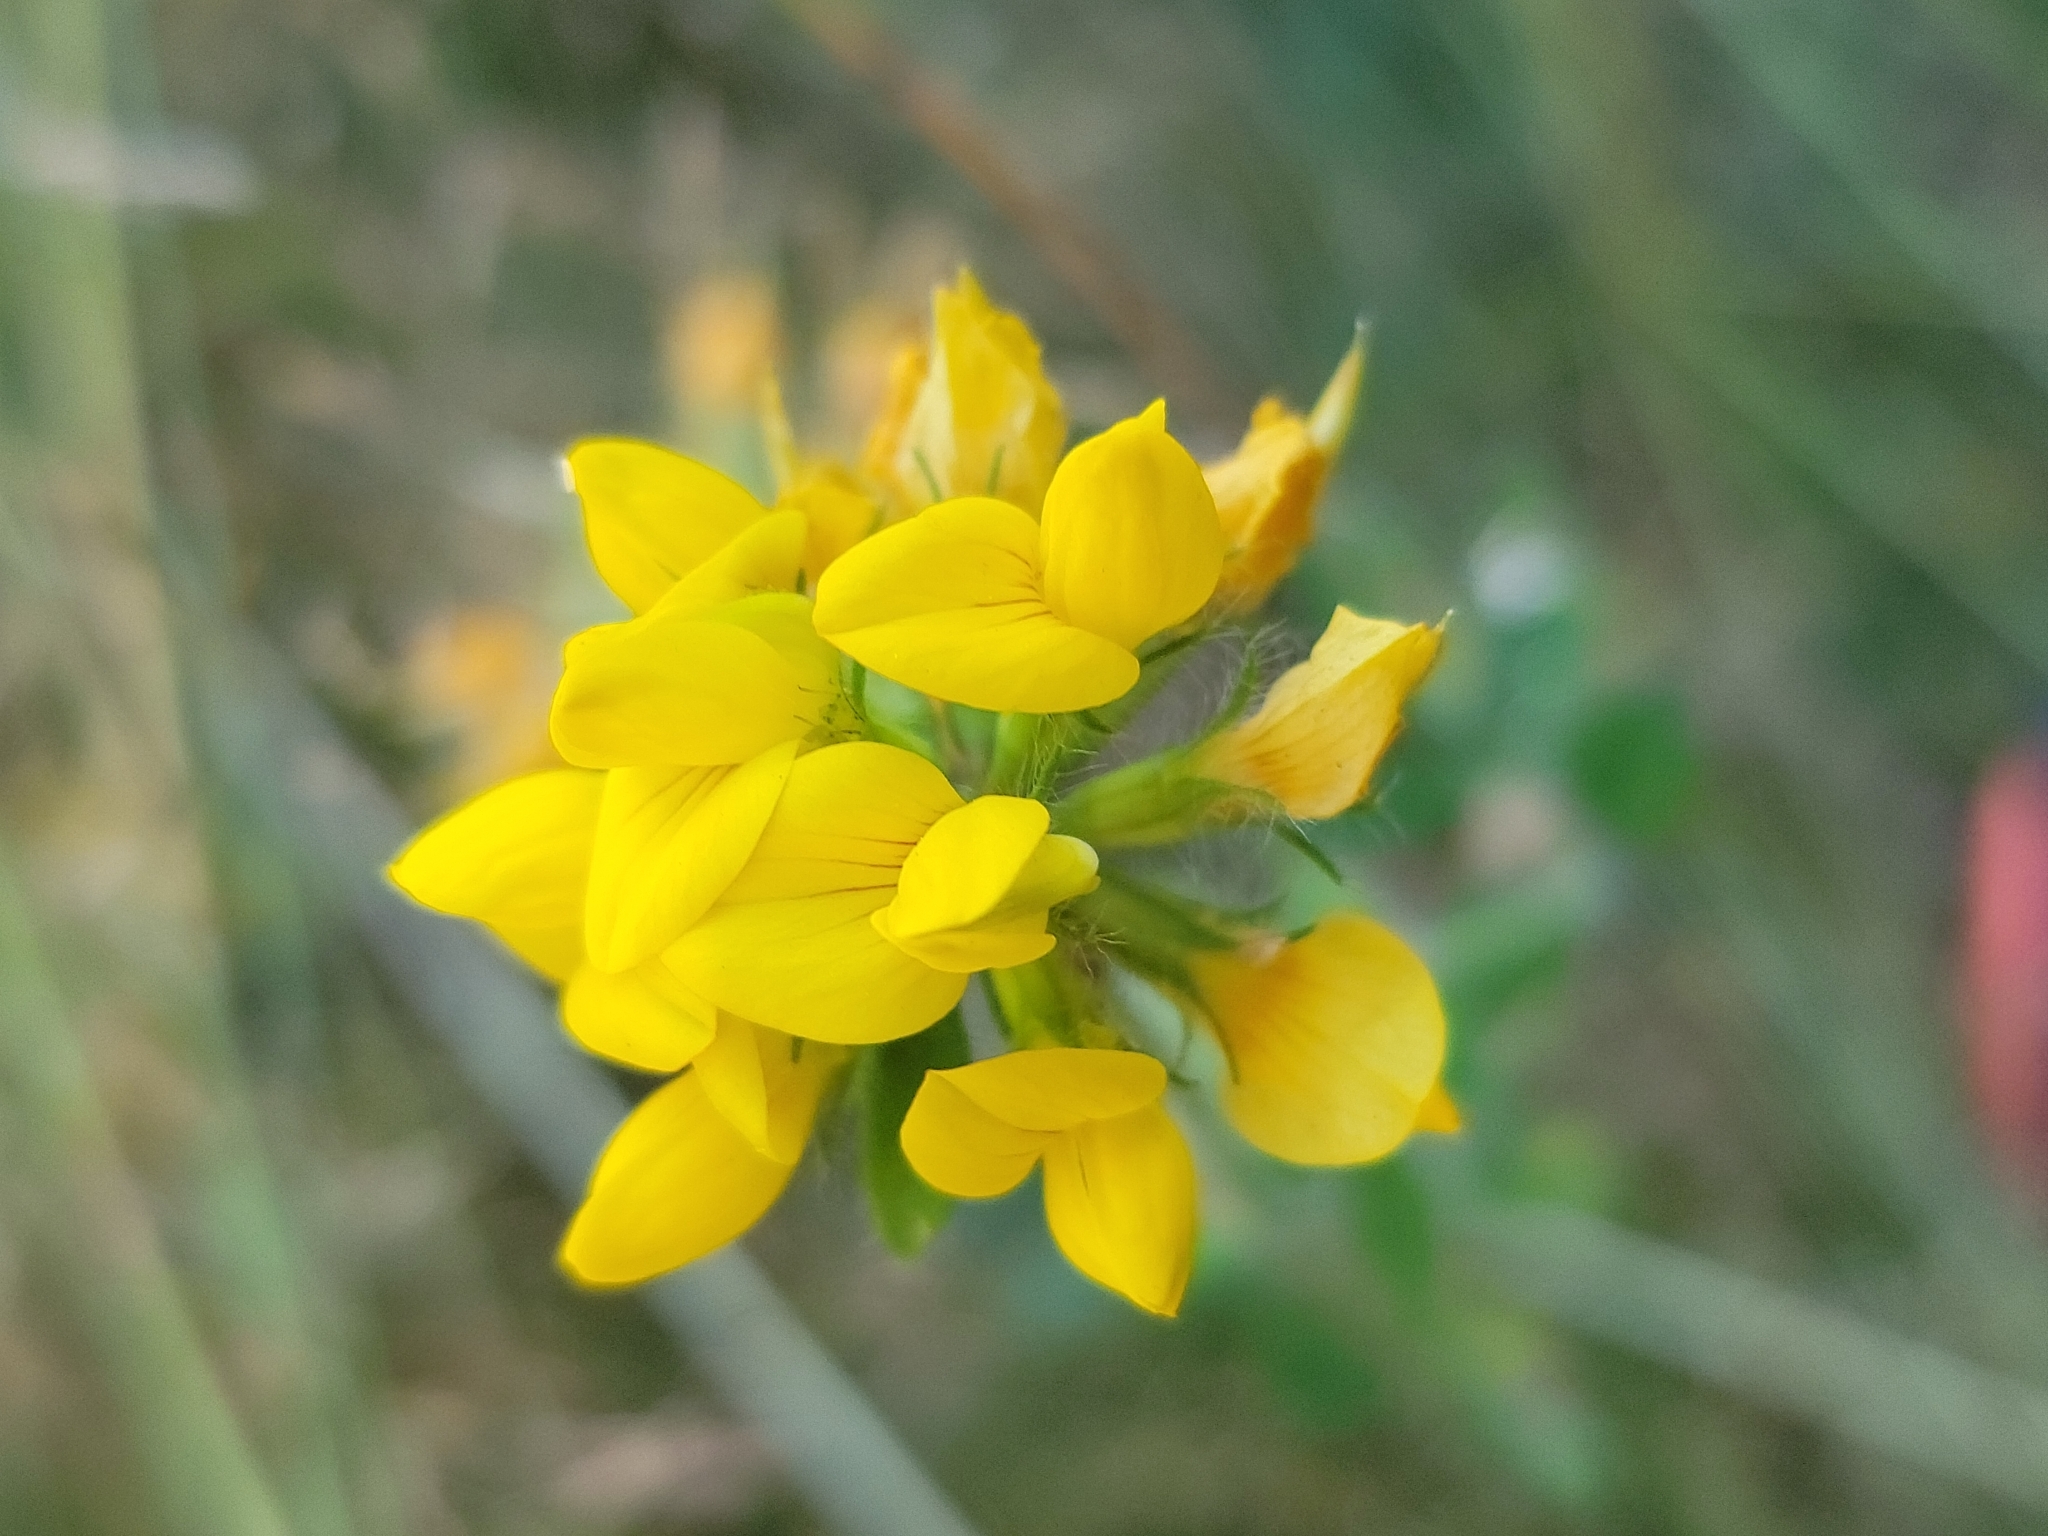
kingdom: Plantae
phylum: Tracheophyta
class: Magnoliopsida
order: Fabales
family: Fabaceae
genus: Lotus
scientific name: Lotus pedunculatus
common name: Greater birdsfoot-trefoil
